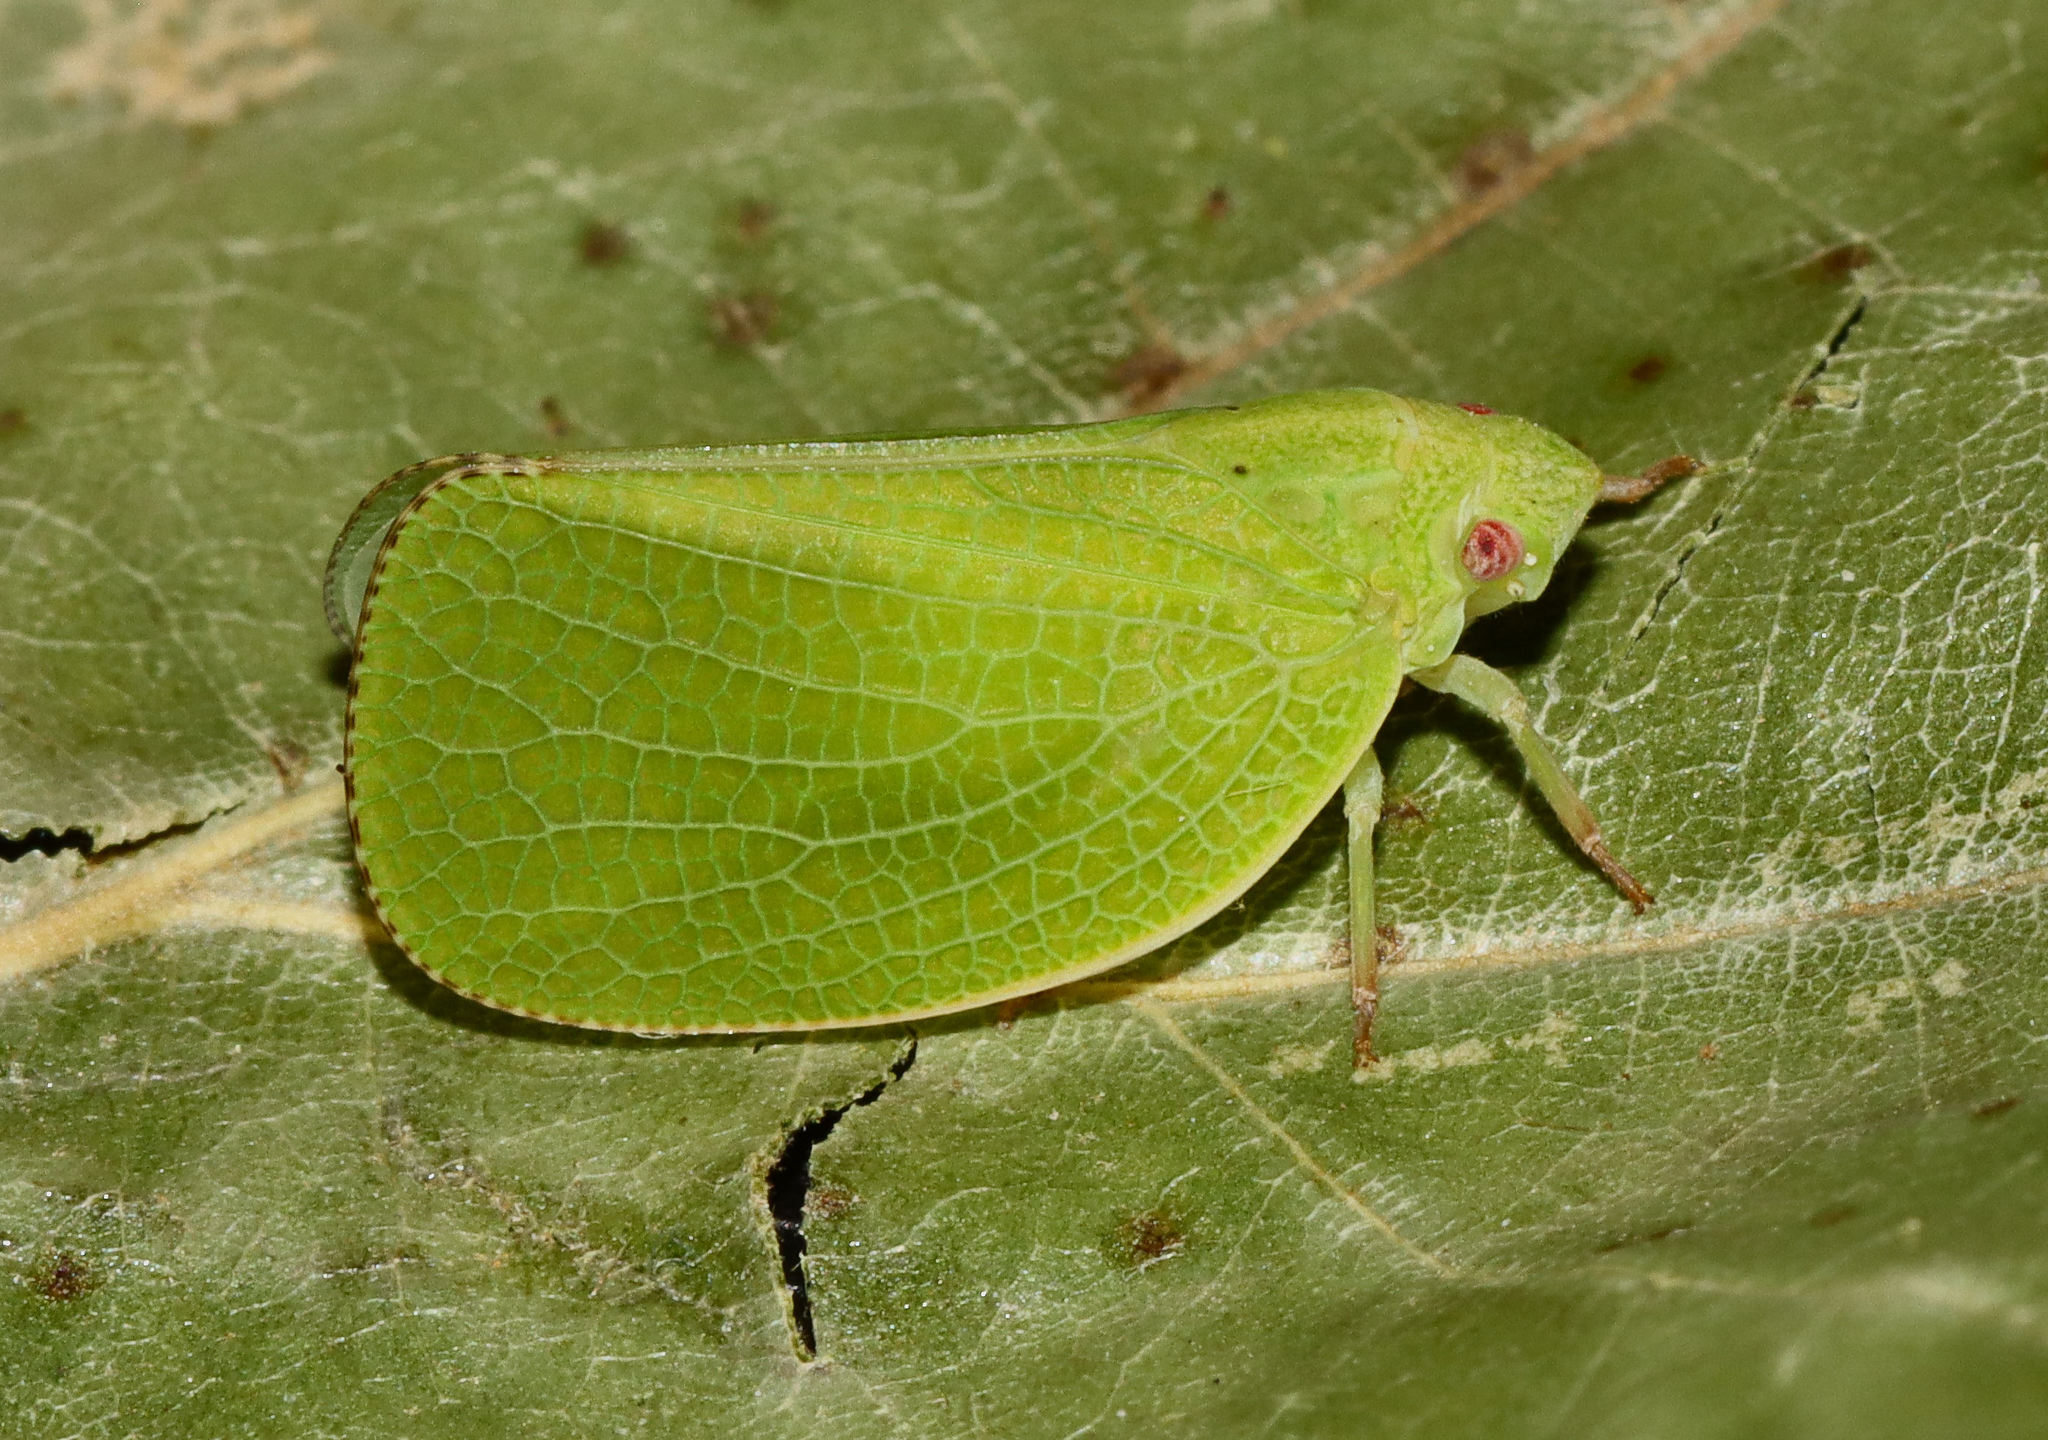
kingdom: Animalia
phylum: Arthropoda
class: Insecta
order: Hemiptera
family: Acanaloniidae
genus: Acanalonia
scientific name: Acanalonia conica
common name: Green cone-headed planthopper
